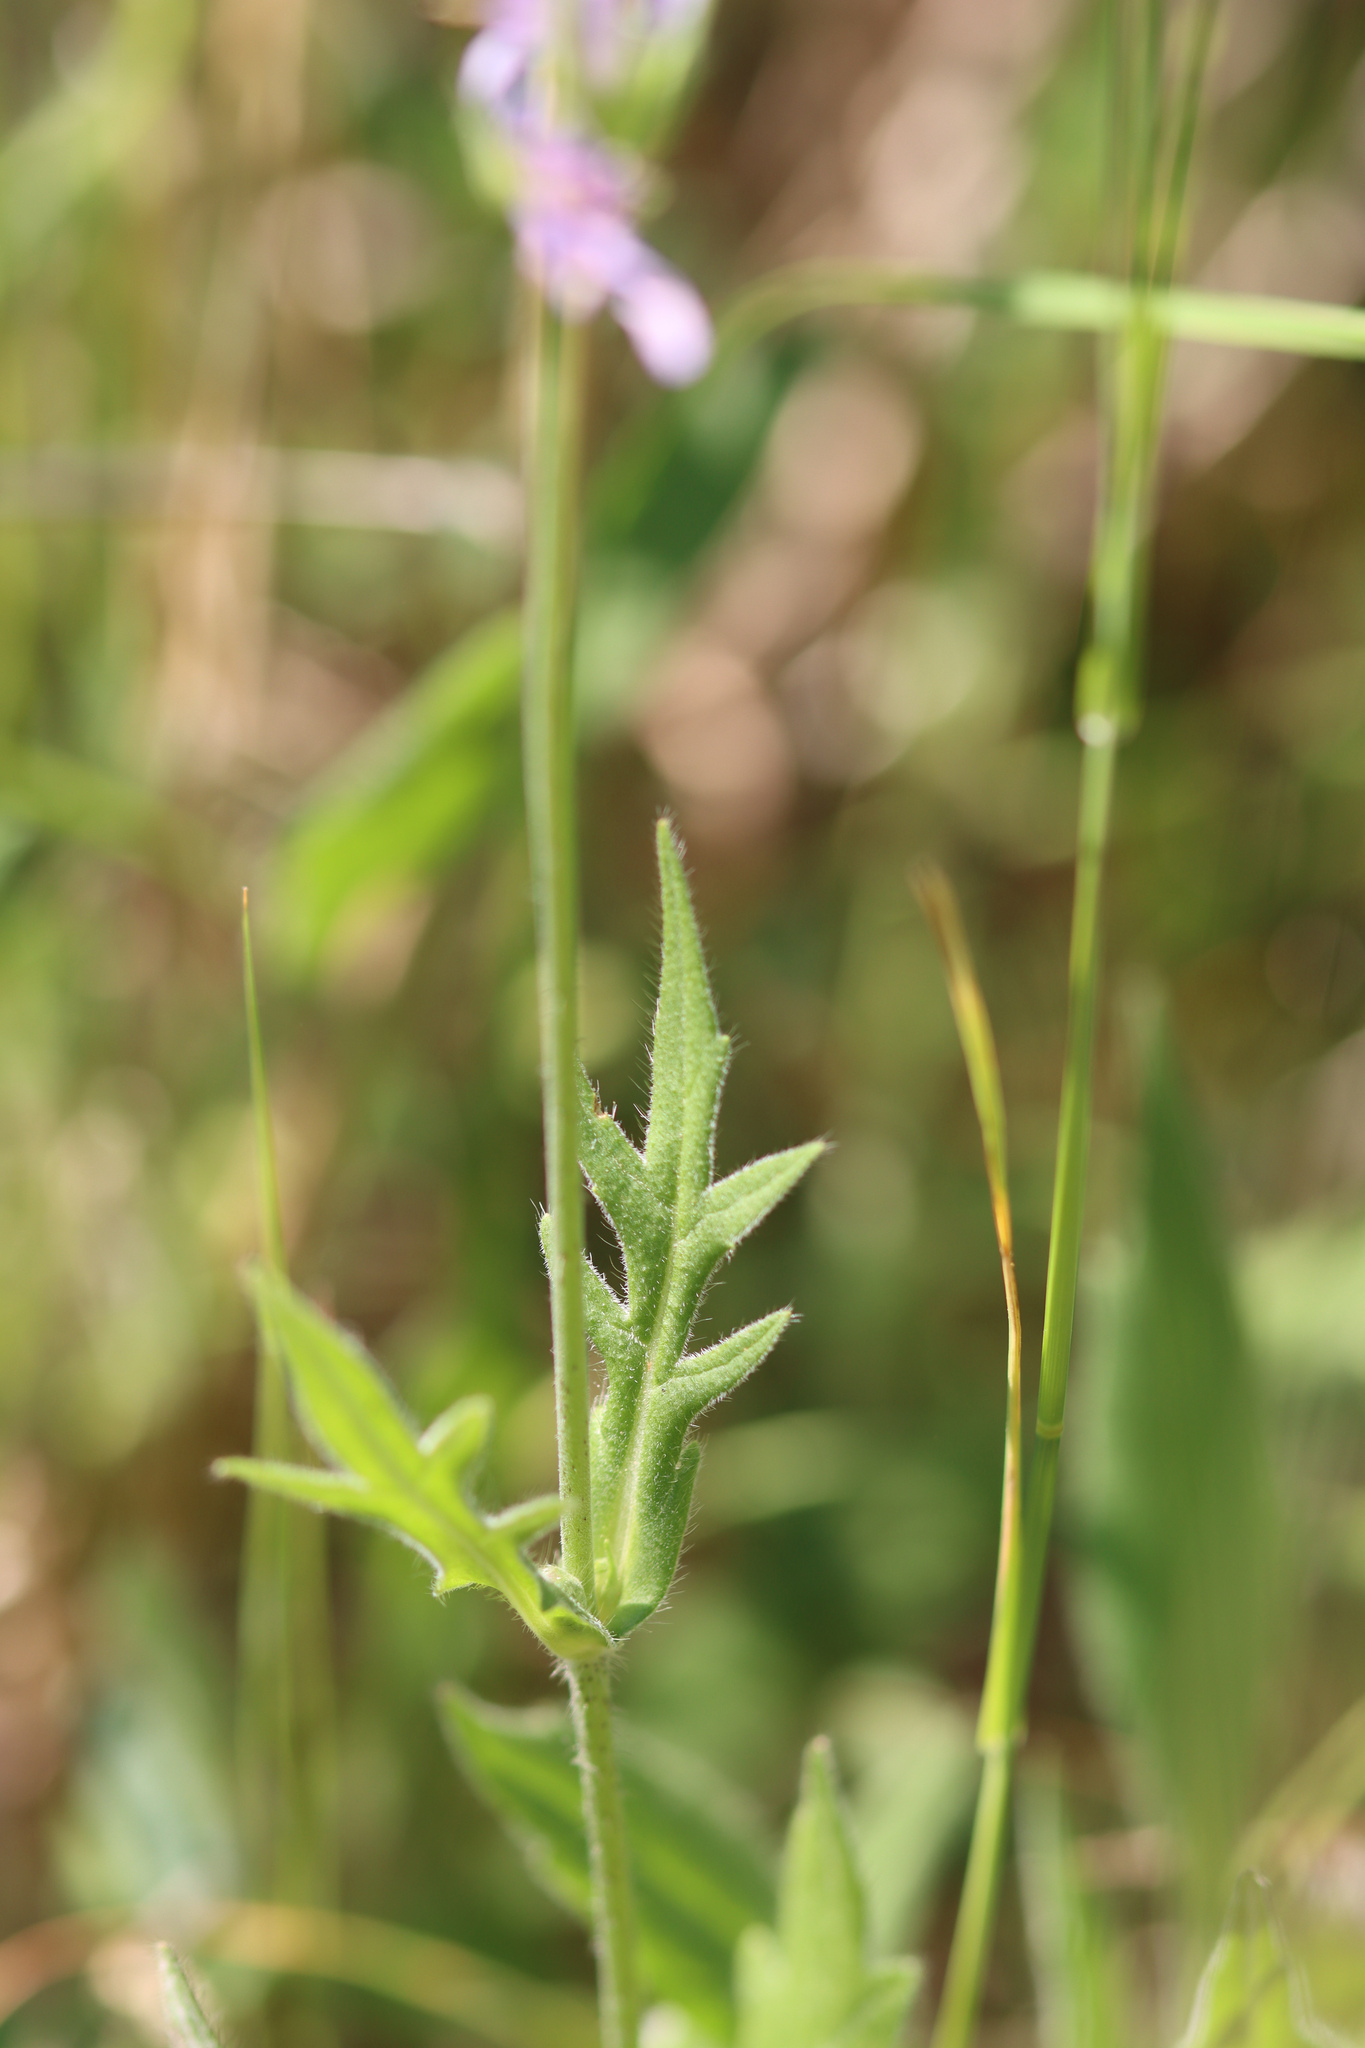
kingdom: Plantae
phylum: Tracheophyta
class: Magnoliopsida
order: Dipsacales
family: Caprifoliaceae
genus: Knautia
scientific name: Knautia arvensis
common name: Field scabiosa
